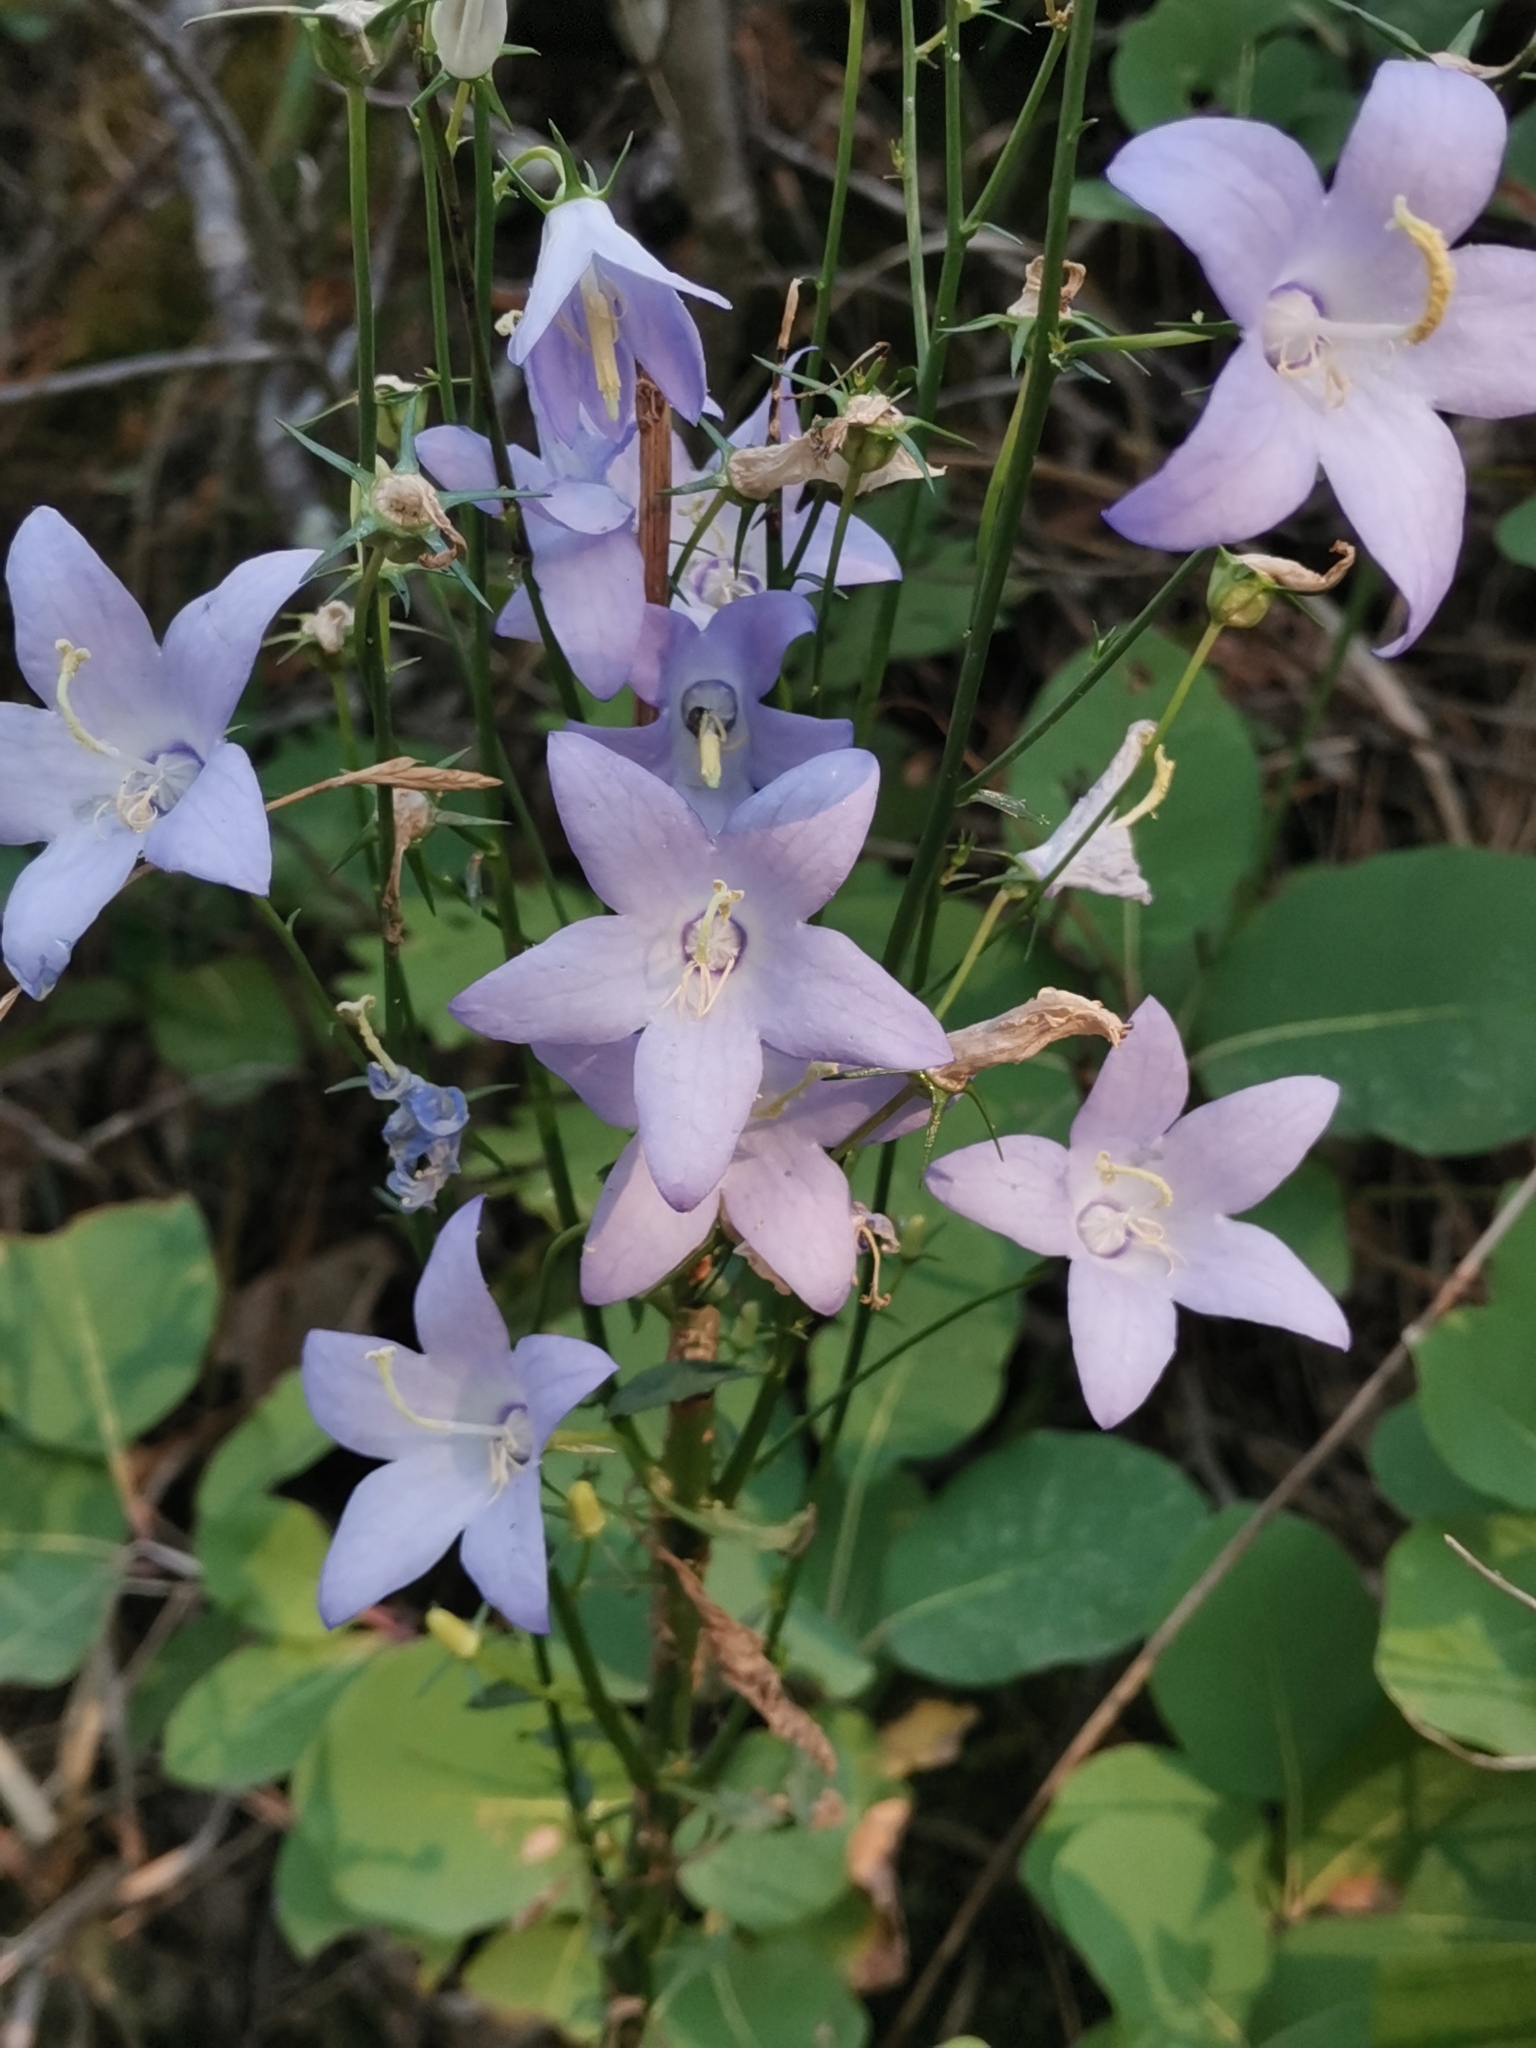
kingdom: Plantae
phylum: Tracheophyta
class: Magnoliopsida
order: Asterales
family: Campanulaceae
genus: Campanula
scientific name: Campanula pyramidalis
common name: Chimney bellflower
